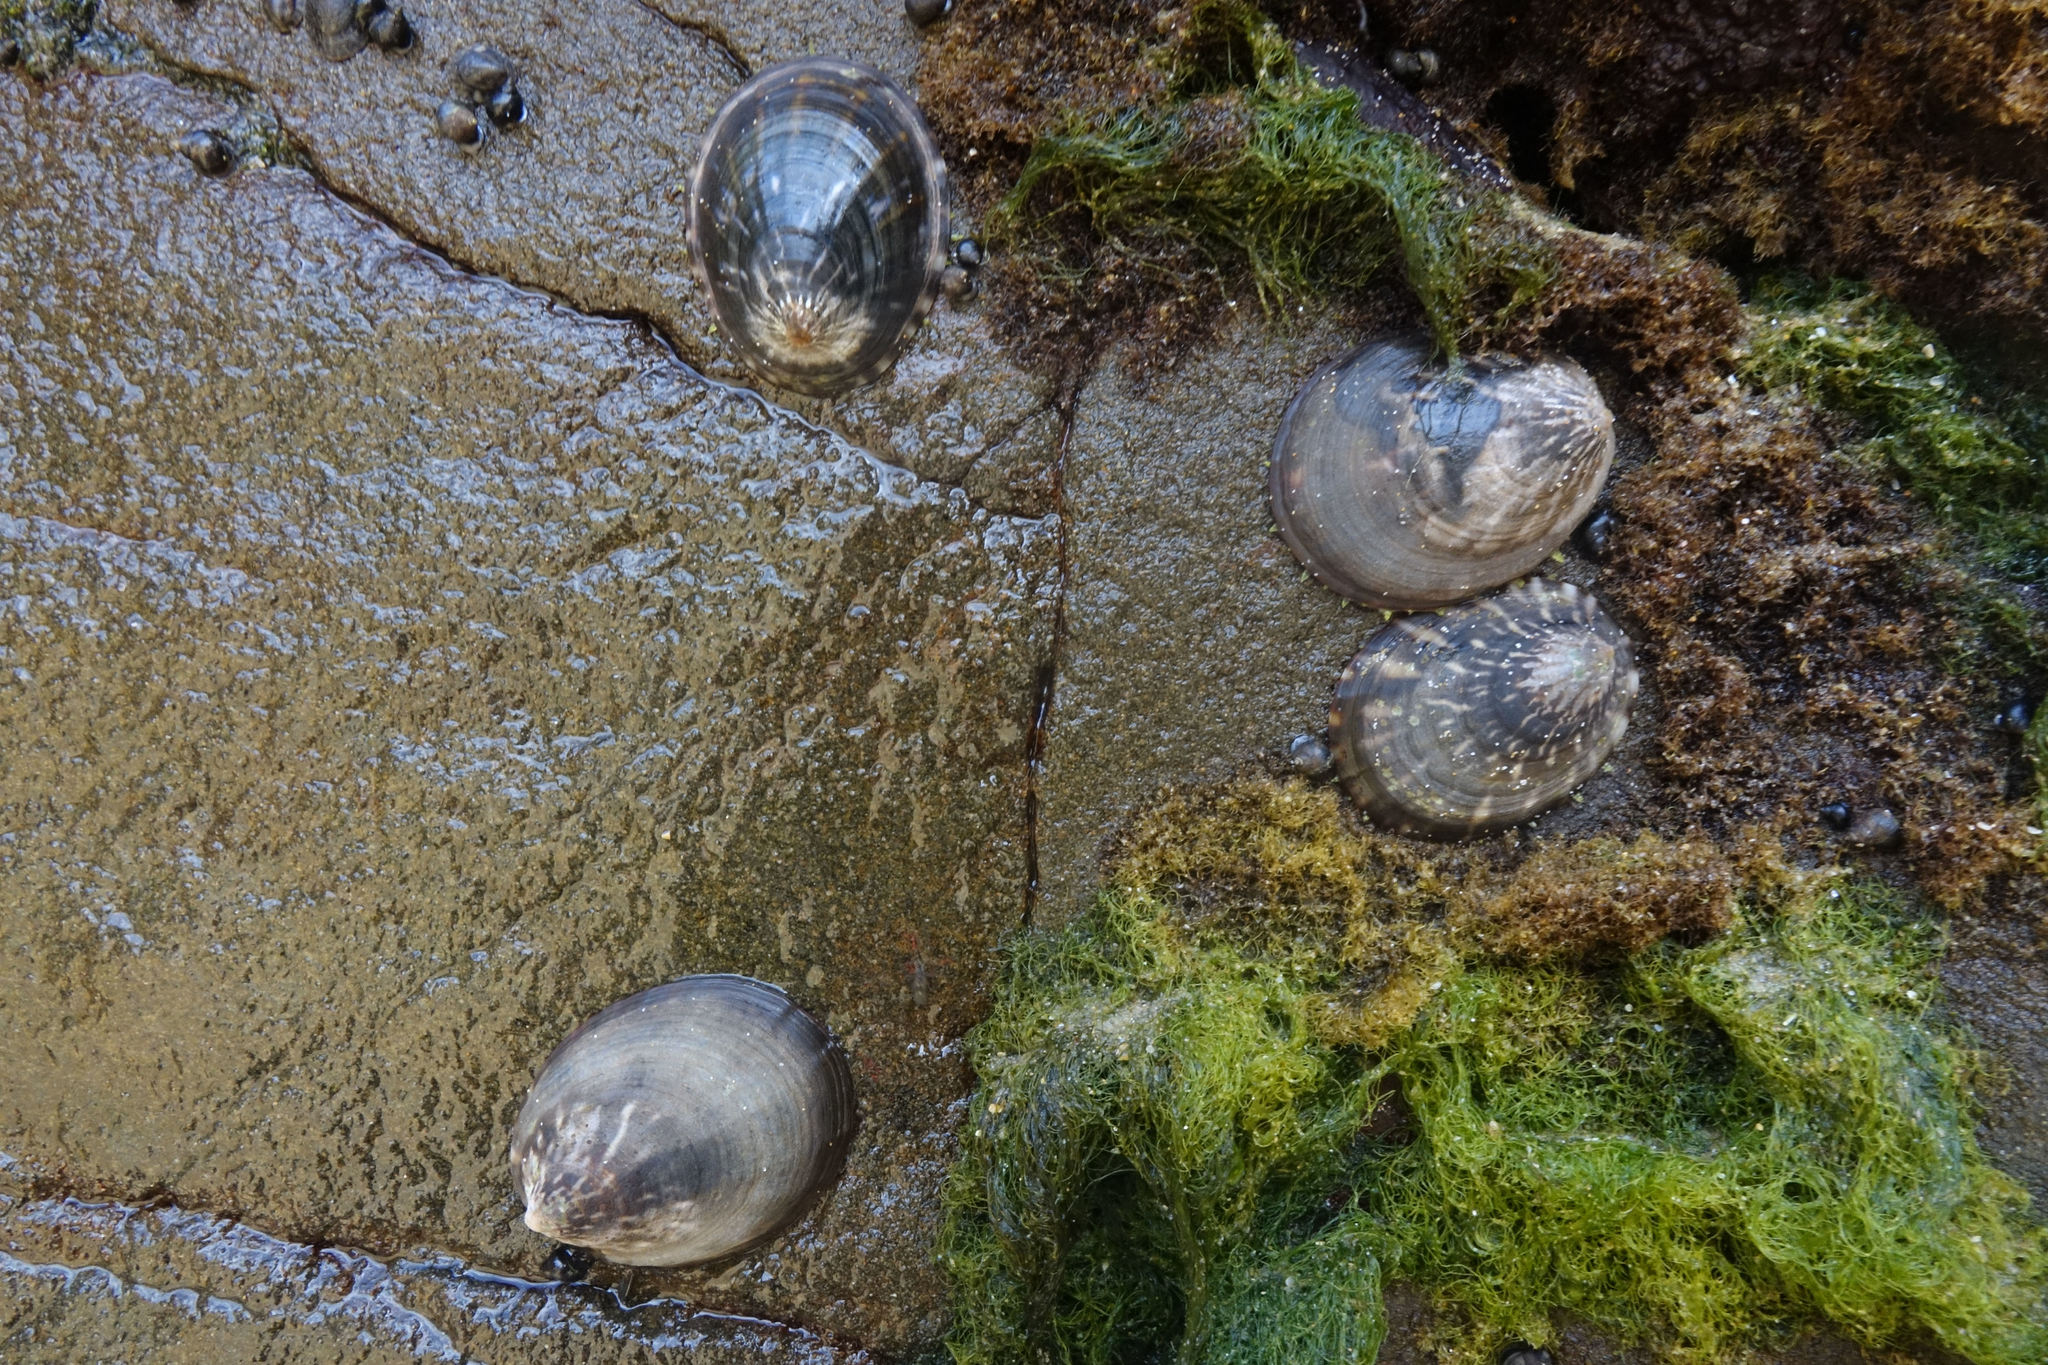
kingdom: Animalia
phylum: Mollusca
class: Gastropoda
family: Nacellidae
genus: Cellana
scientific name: Cellana strigilis
